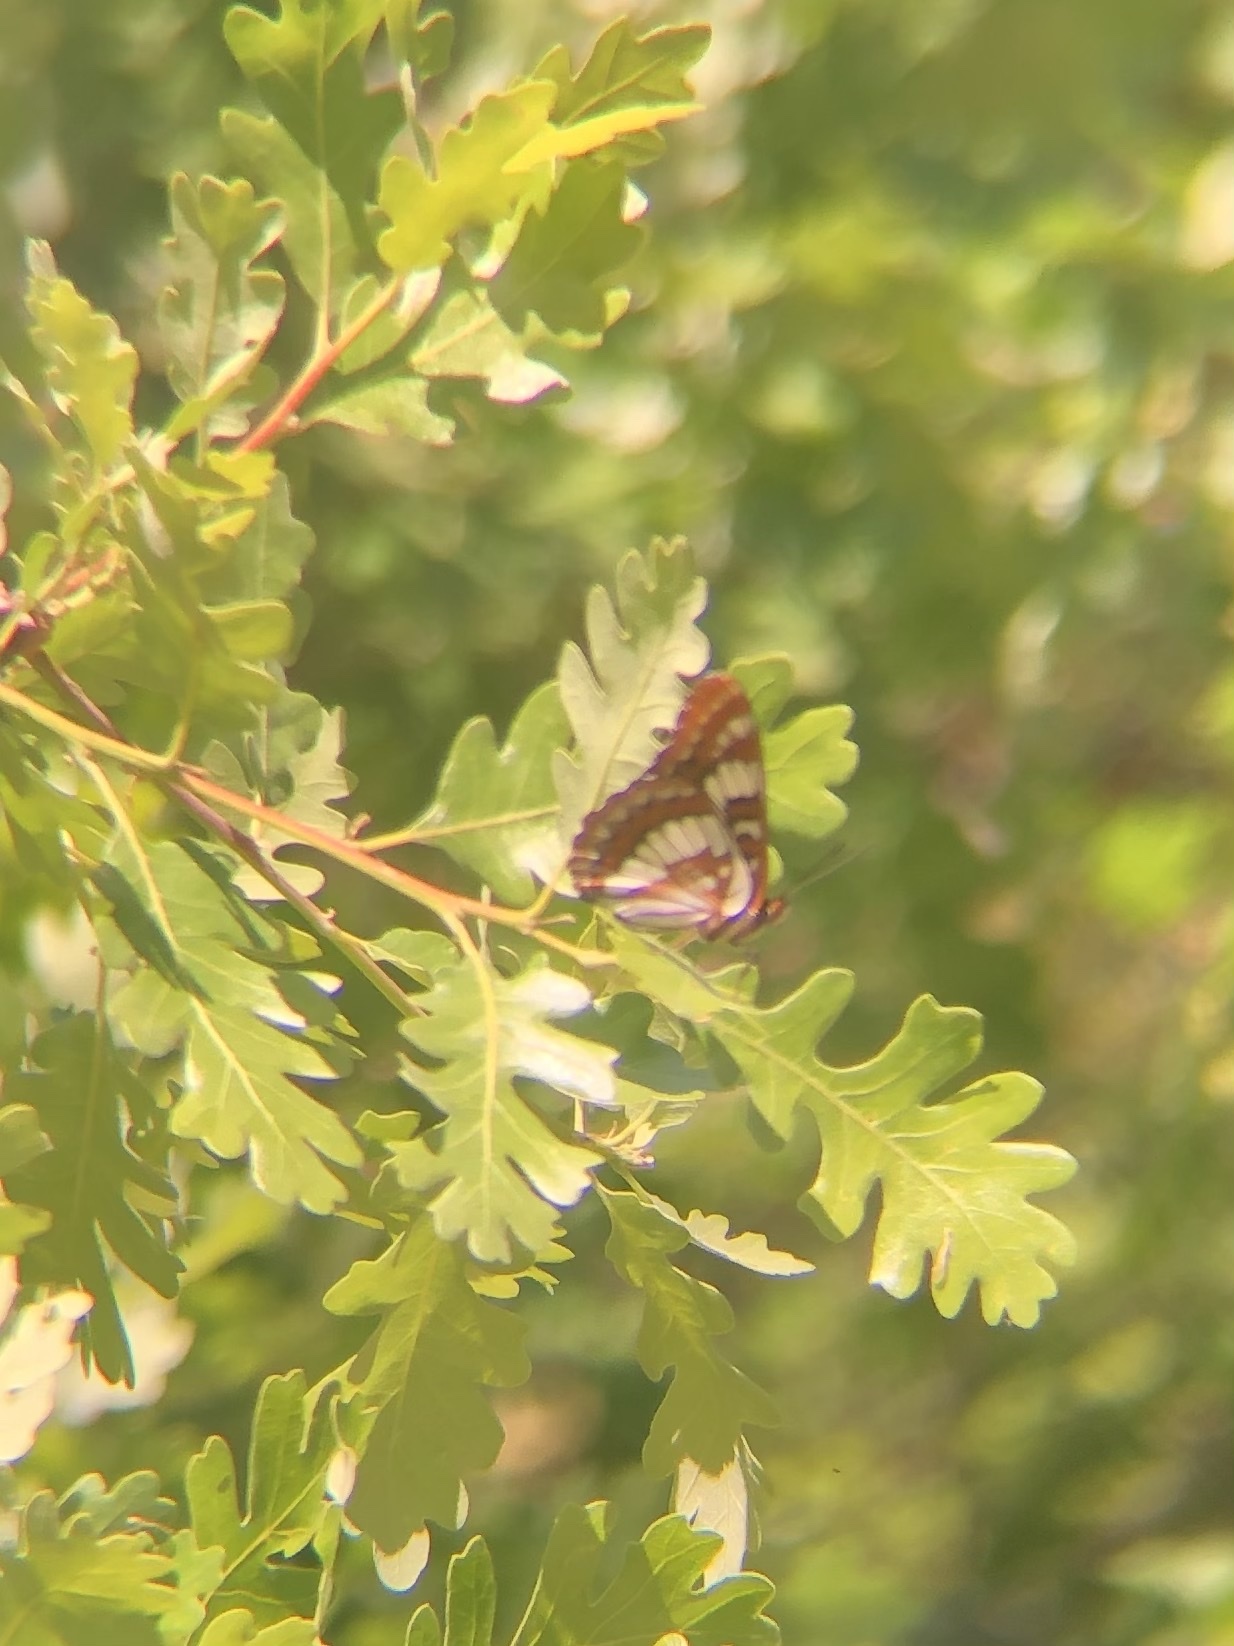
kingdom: Animalia
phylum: Arthropoda
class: Insecta
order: Lepidoptera
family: Nymphalidae
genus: Limenitis
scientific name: Limenitis lorquini
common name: Lorquin's admiral
